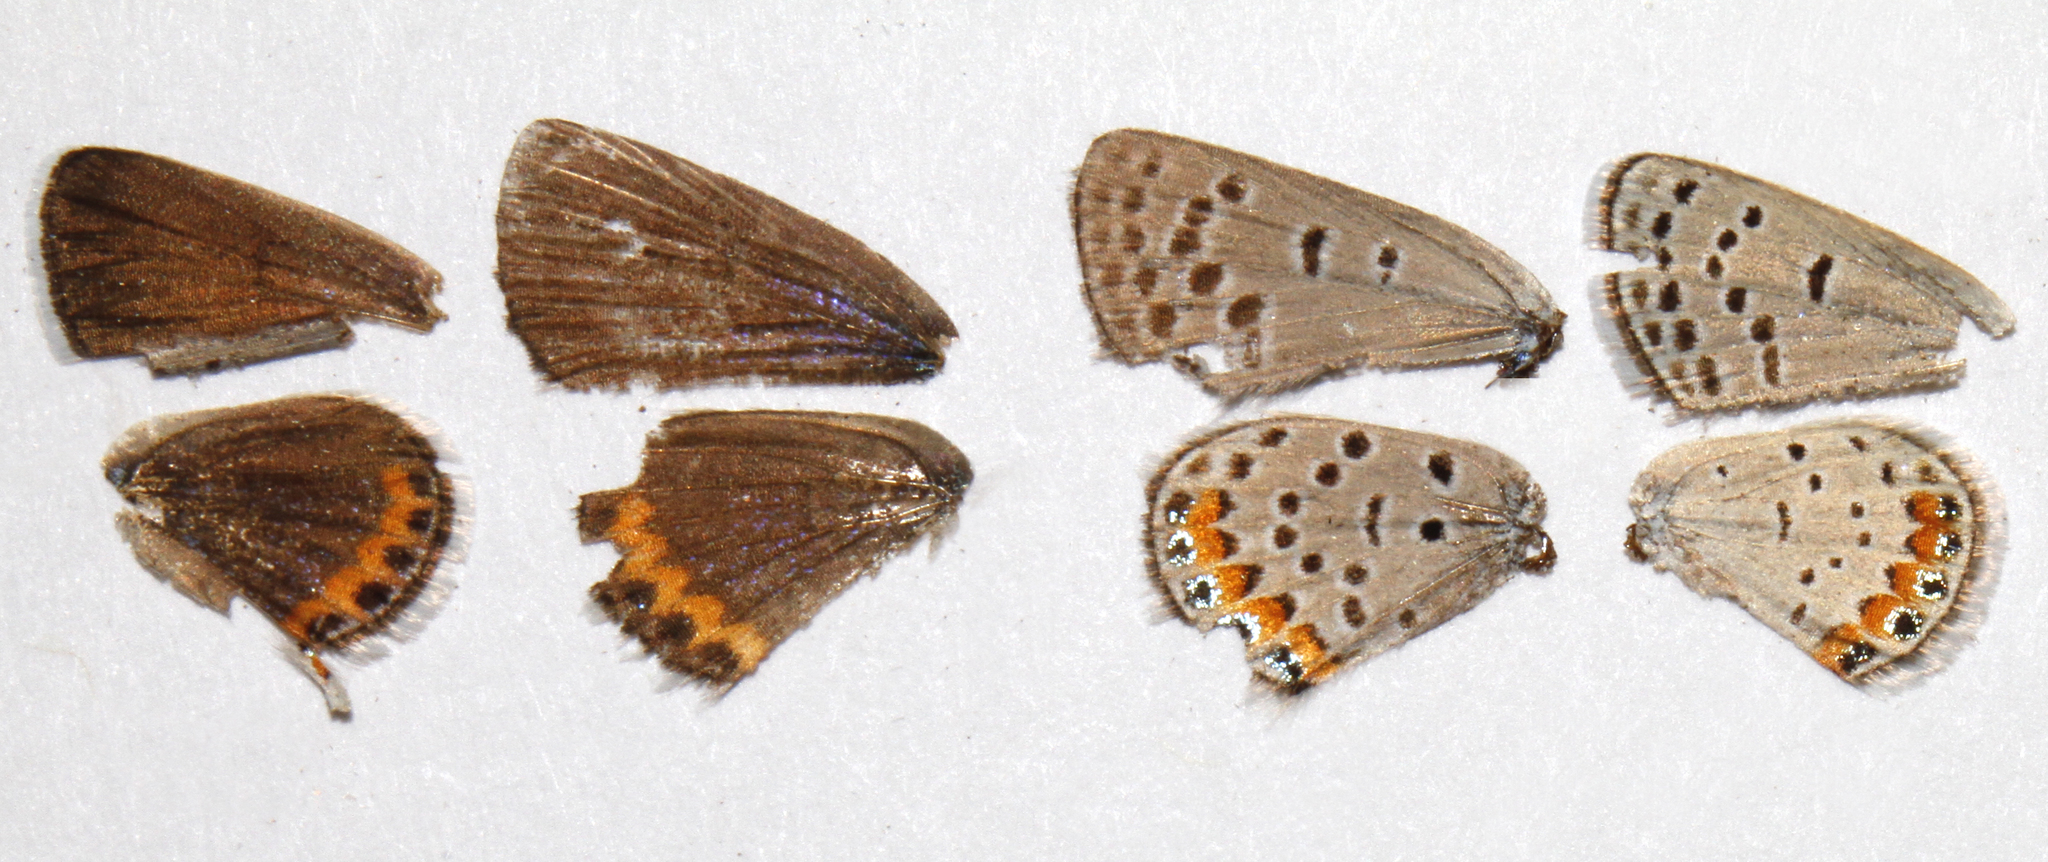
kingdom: Animalia
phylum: Arthropoda
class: Insecta
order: Lepidoptera
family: Lycaenidae
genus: Icaricia
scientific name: Icaricia lupini
